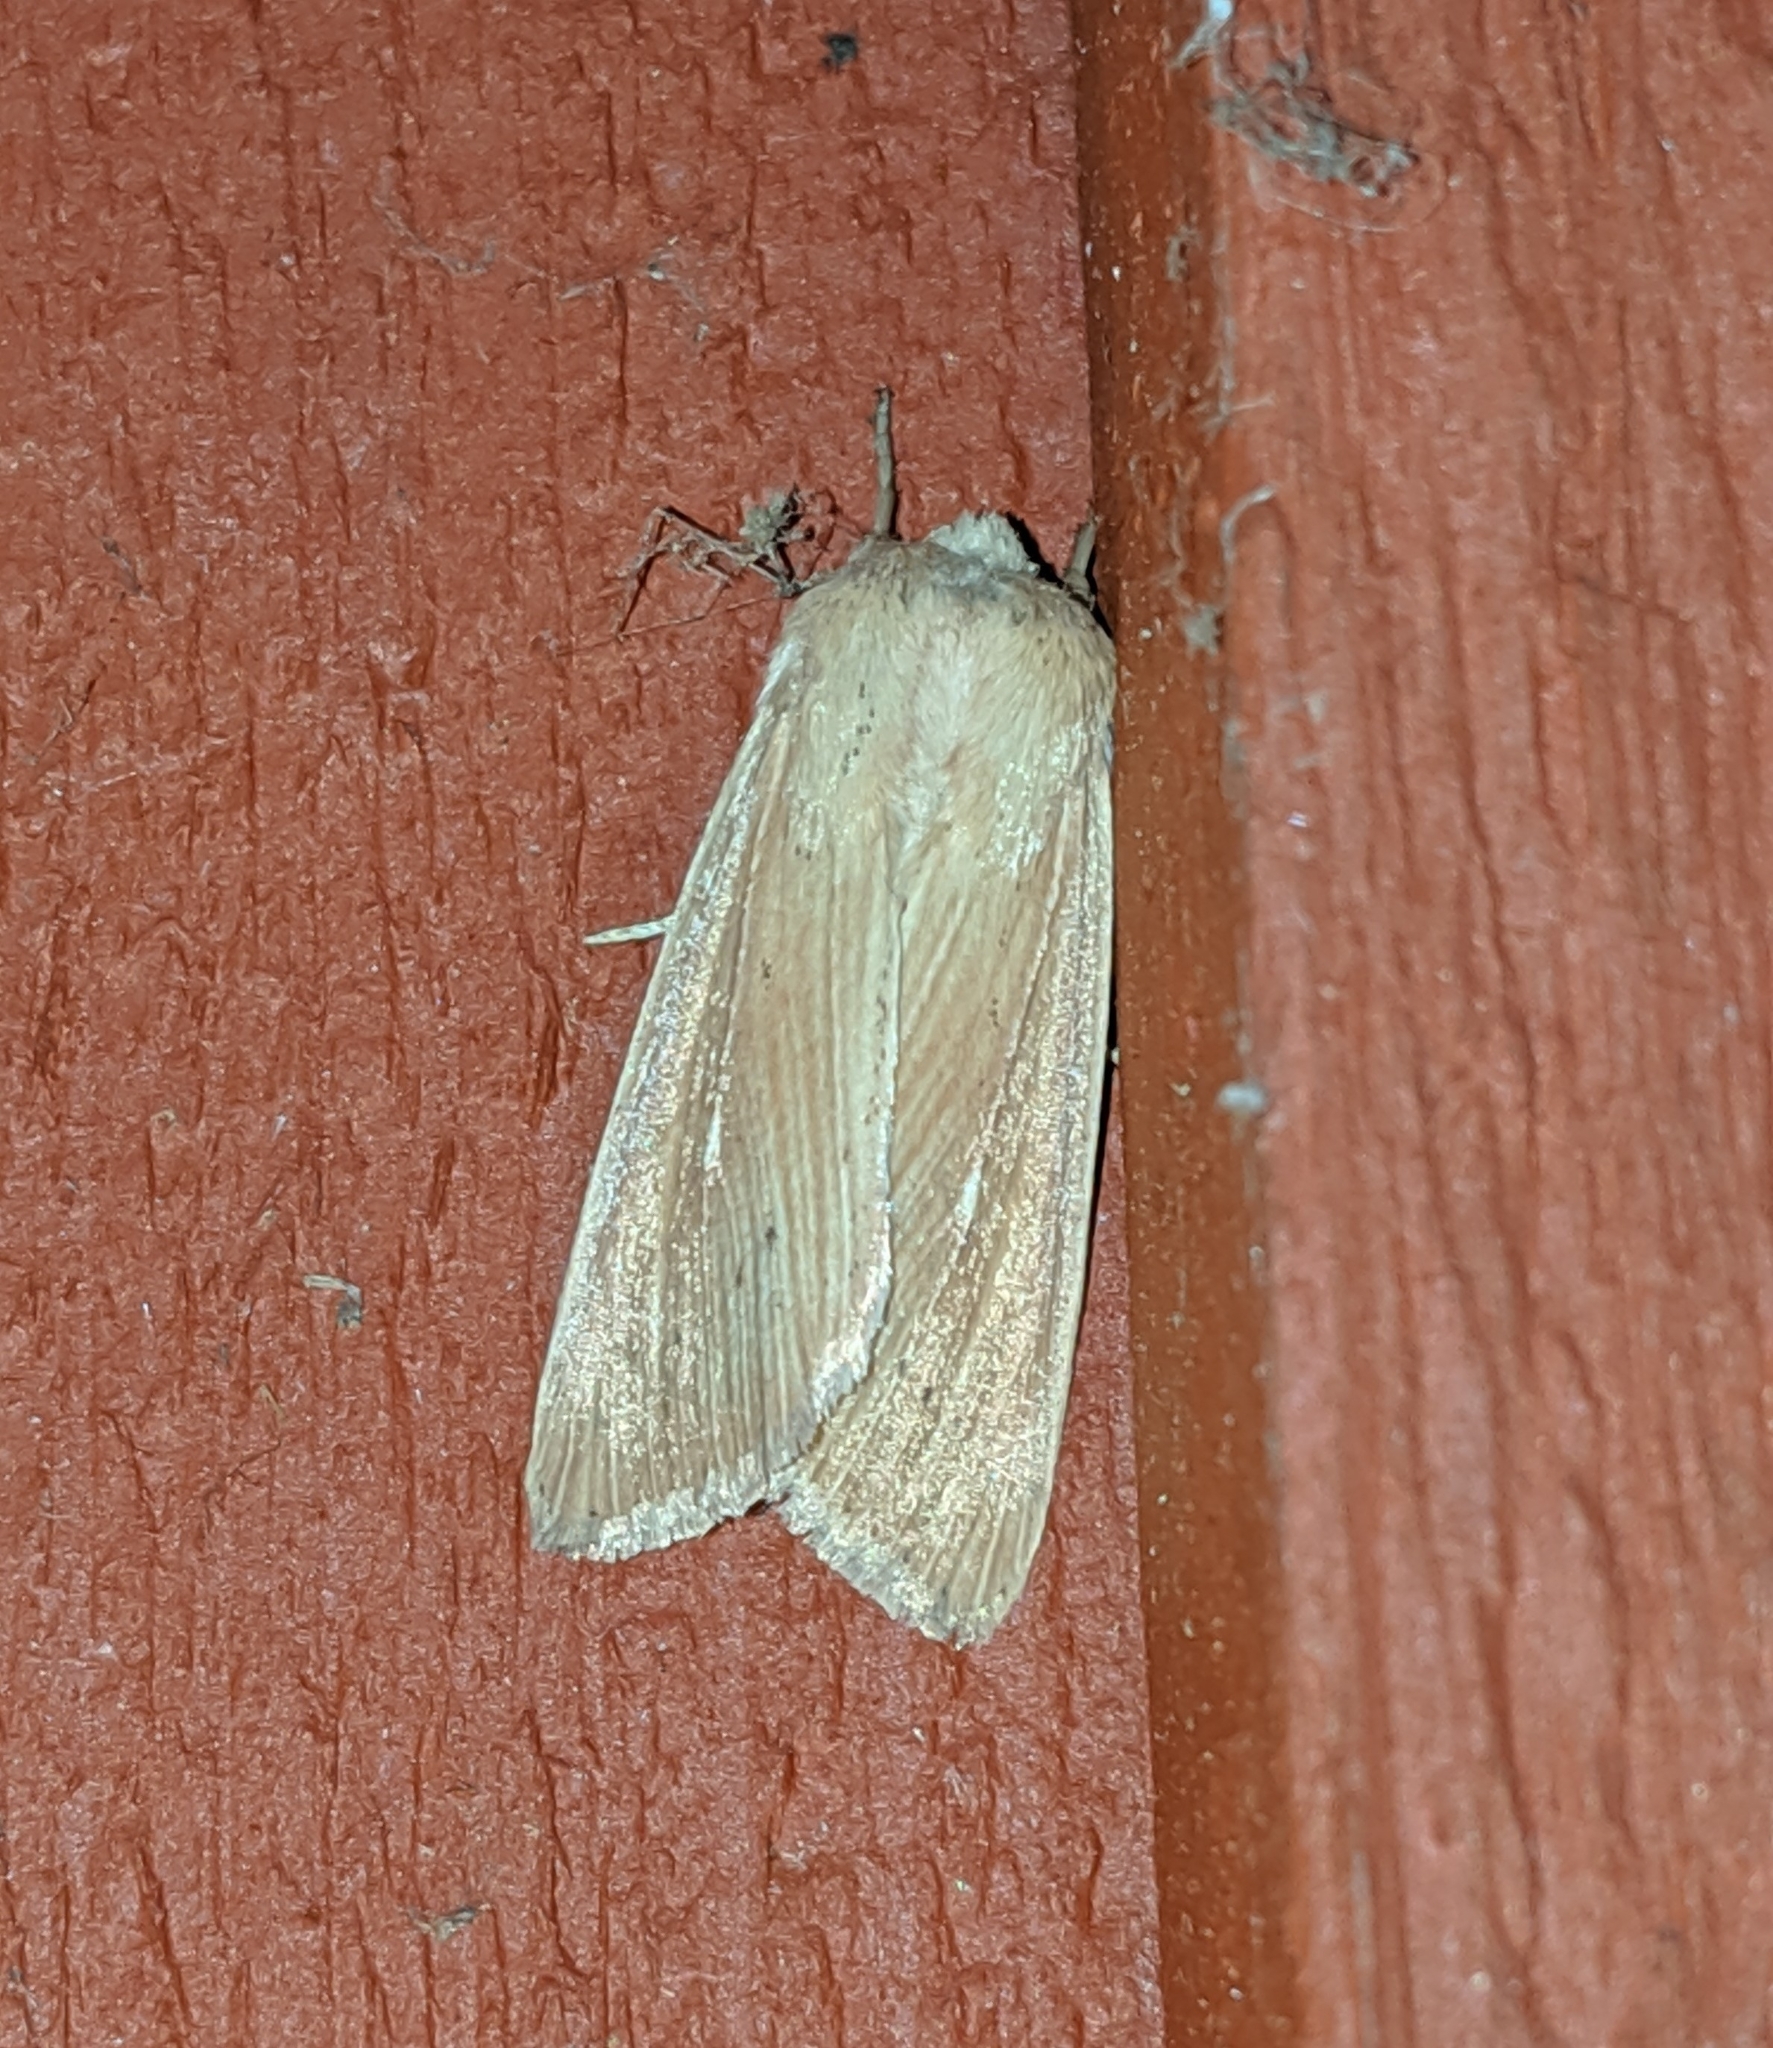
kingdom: Animalia
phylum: Arthropoda
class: Insecta
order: Lepidoptera
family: Noctuidae
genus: Leucania
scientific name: Leucania farcta
